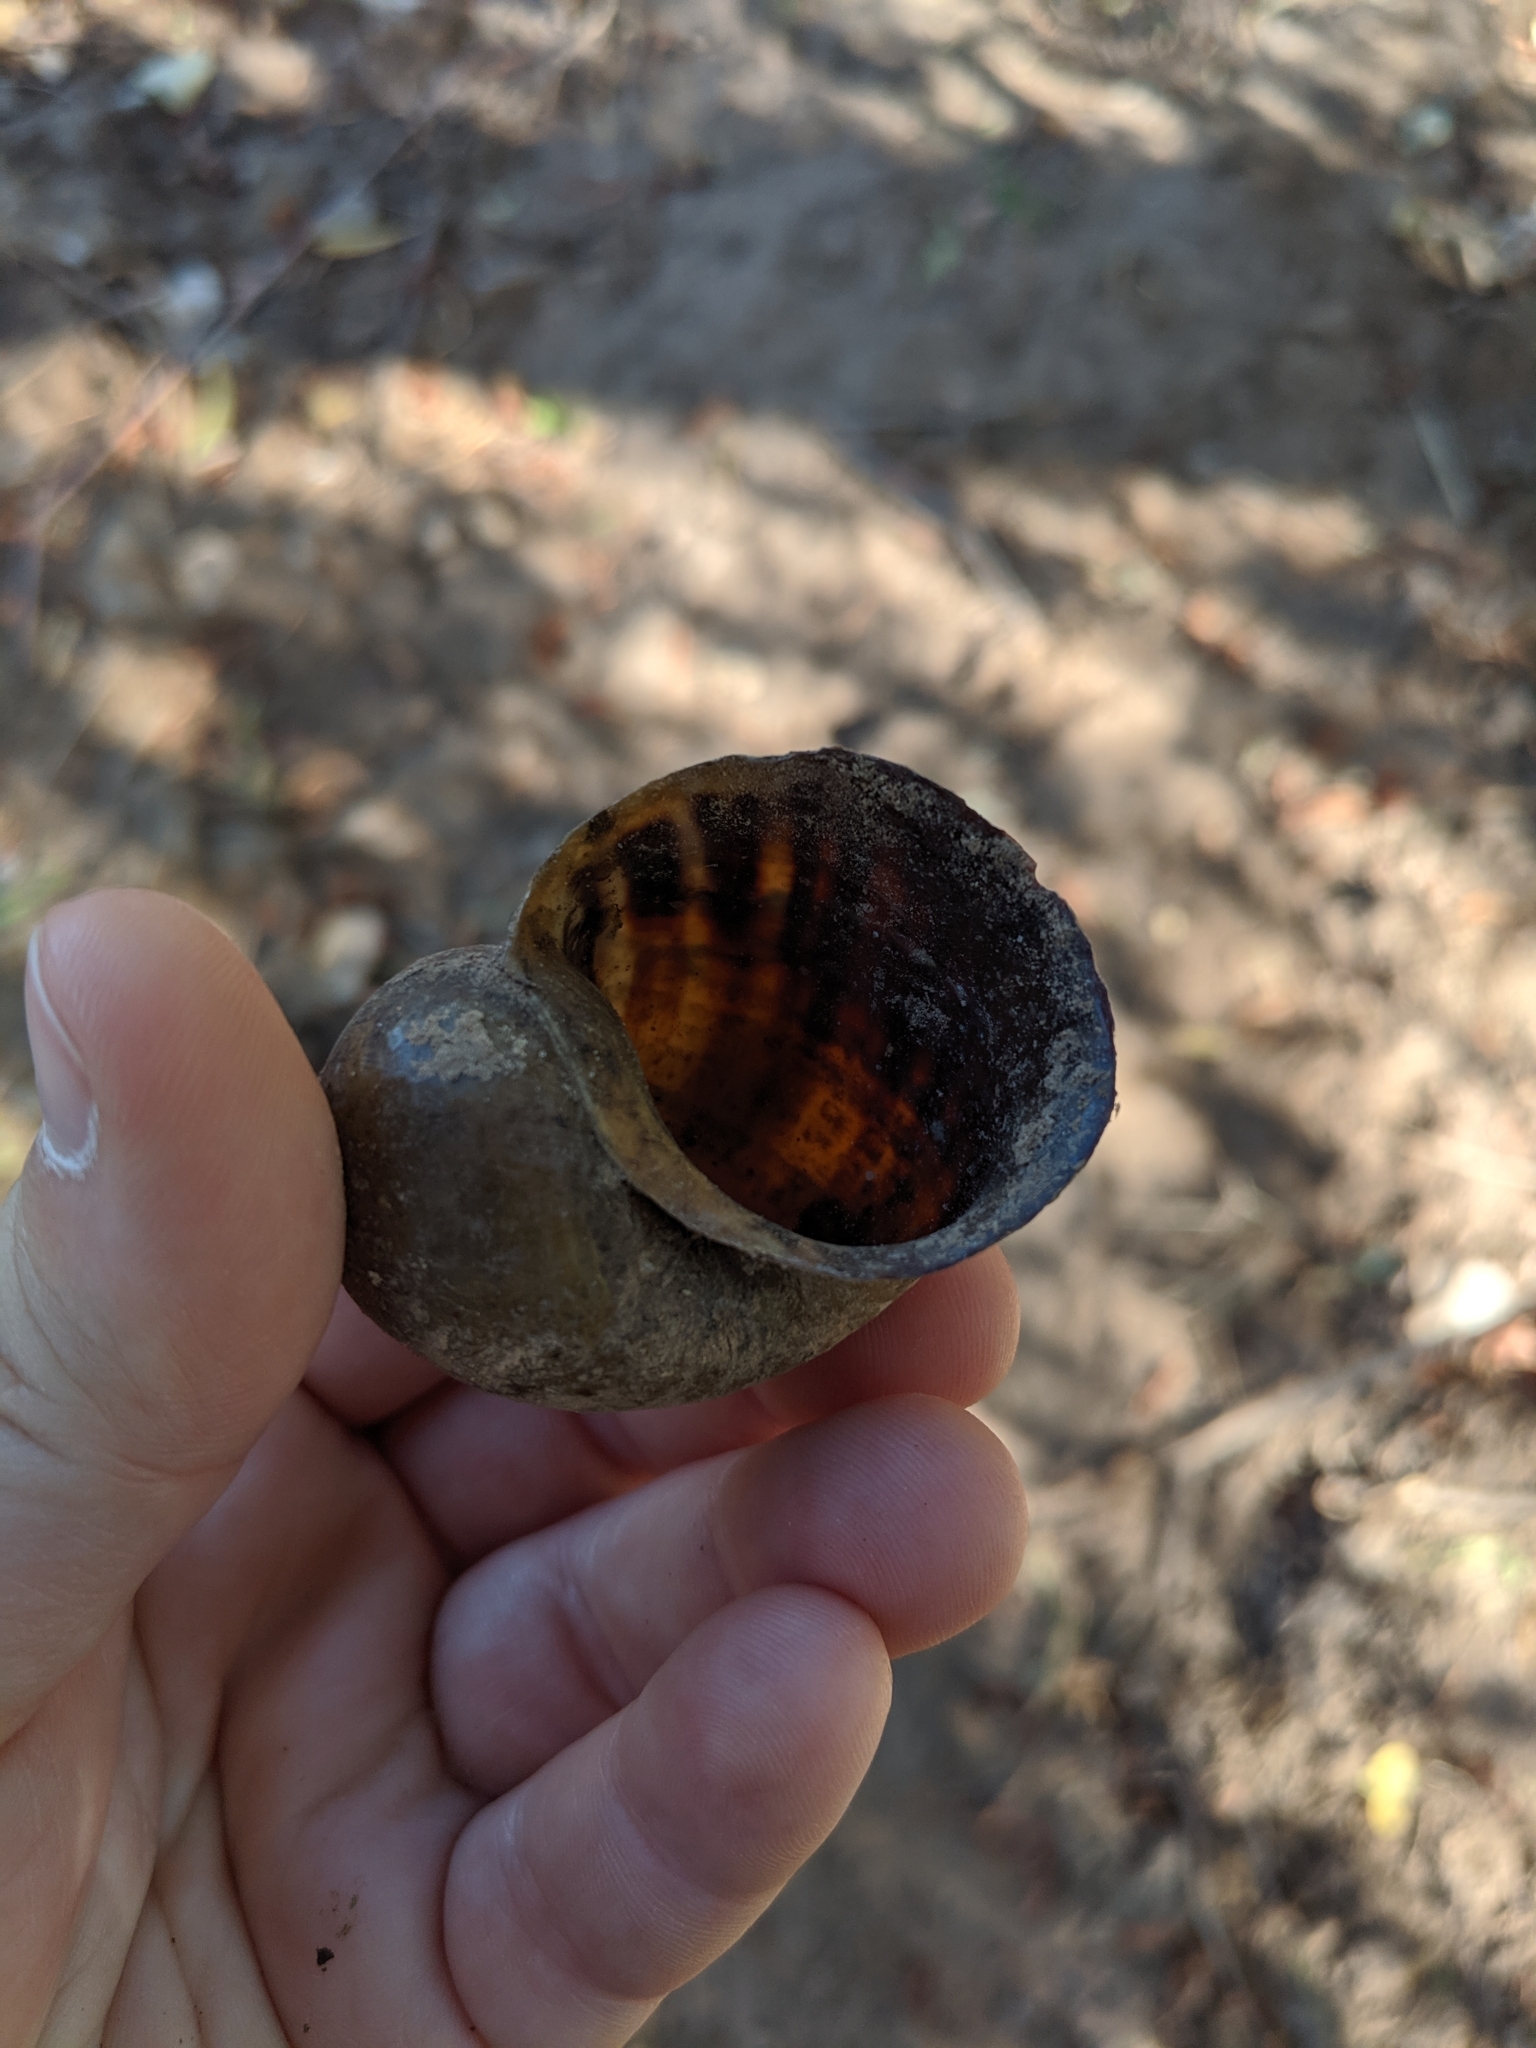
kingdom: Animalia
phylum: Mollusca
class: Gastropoda
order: Architaenioglossa
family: Ampullariidae
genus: Pomacea
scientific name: Pomacea canaliculata
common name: Channeled applesnail
